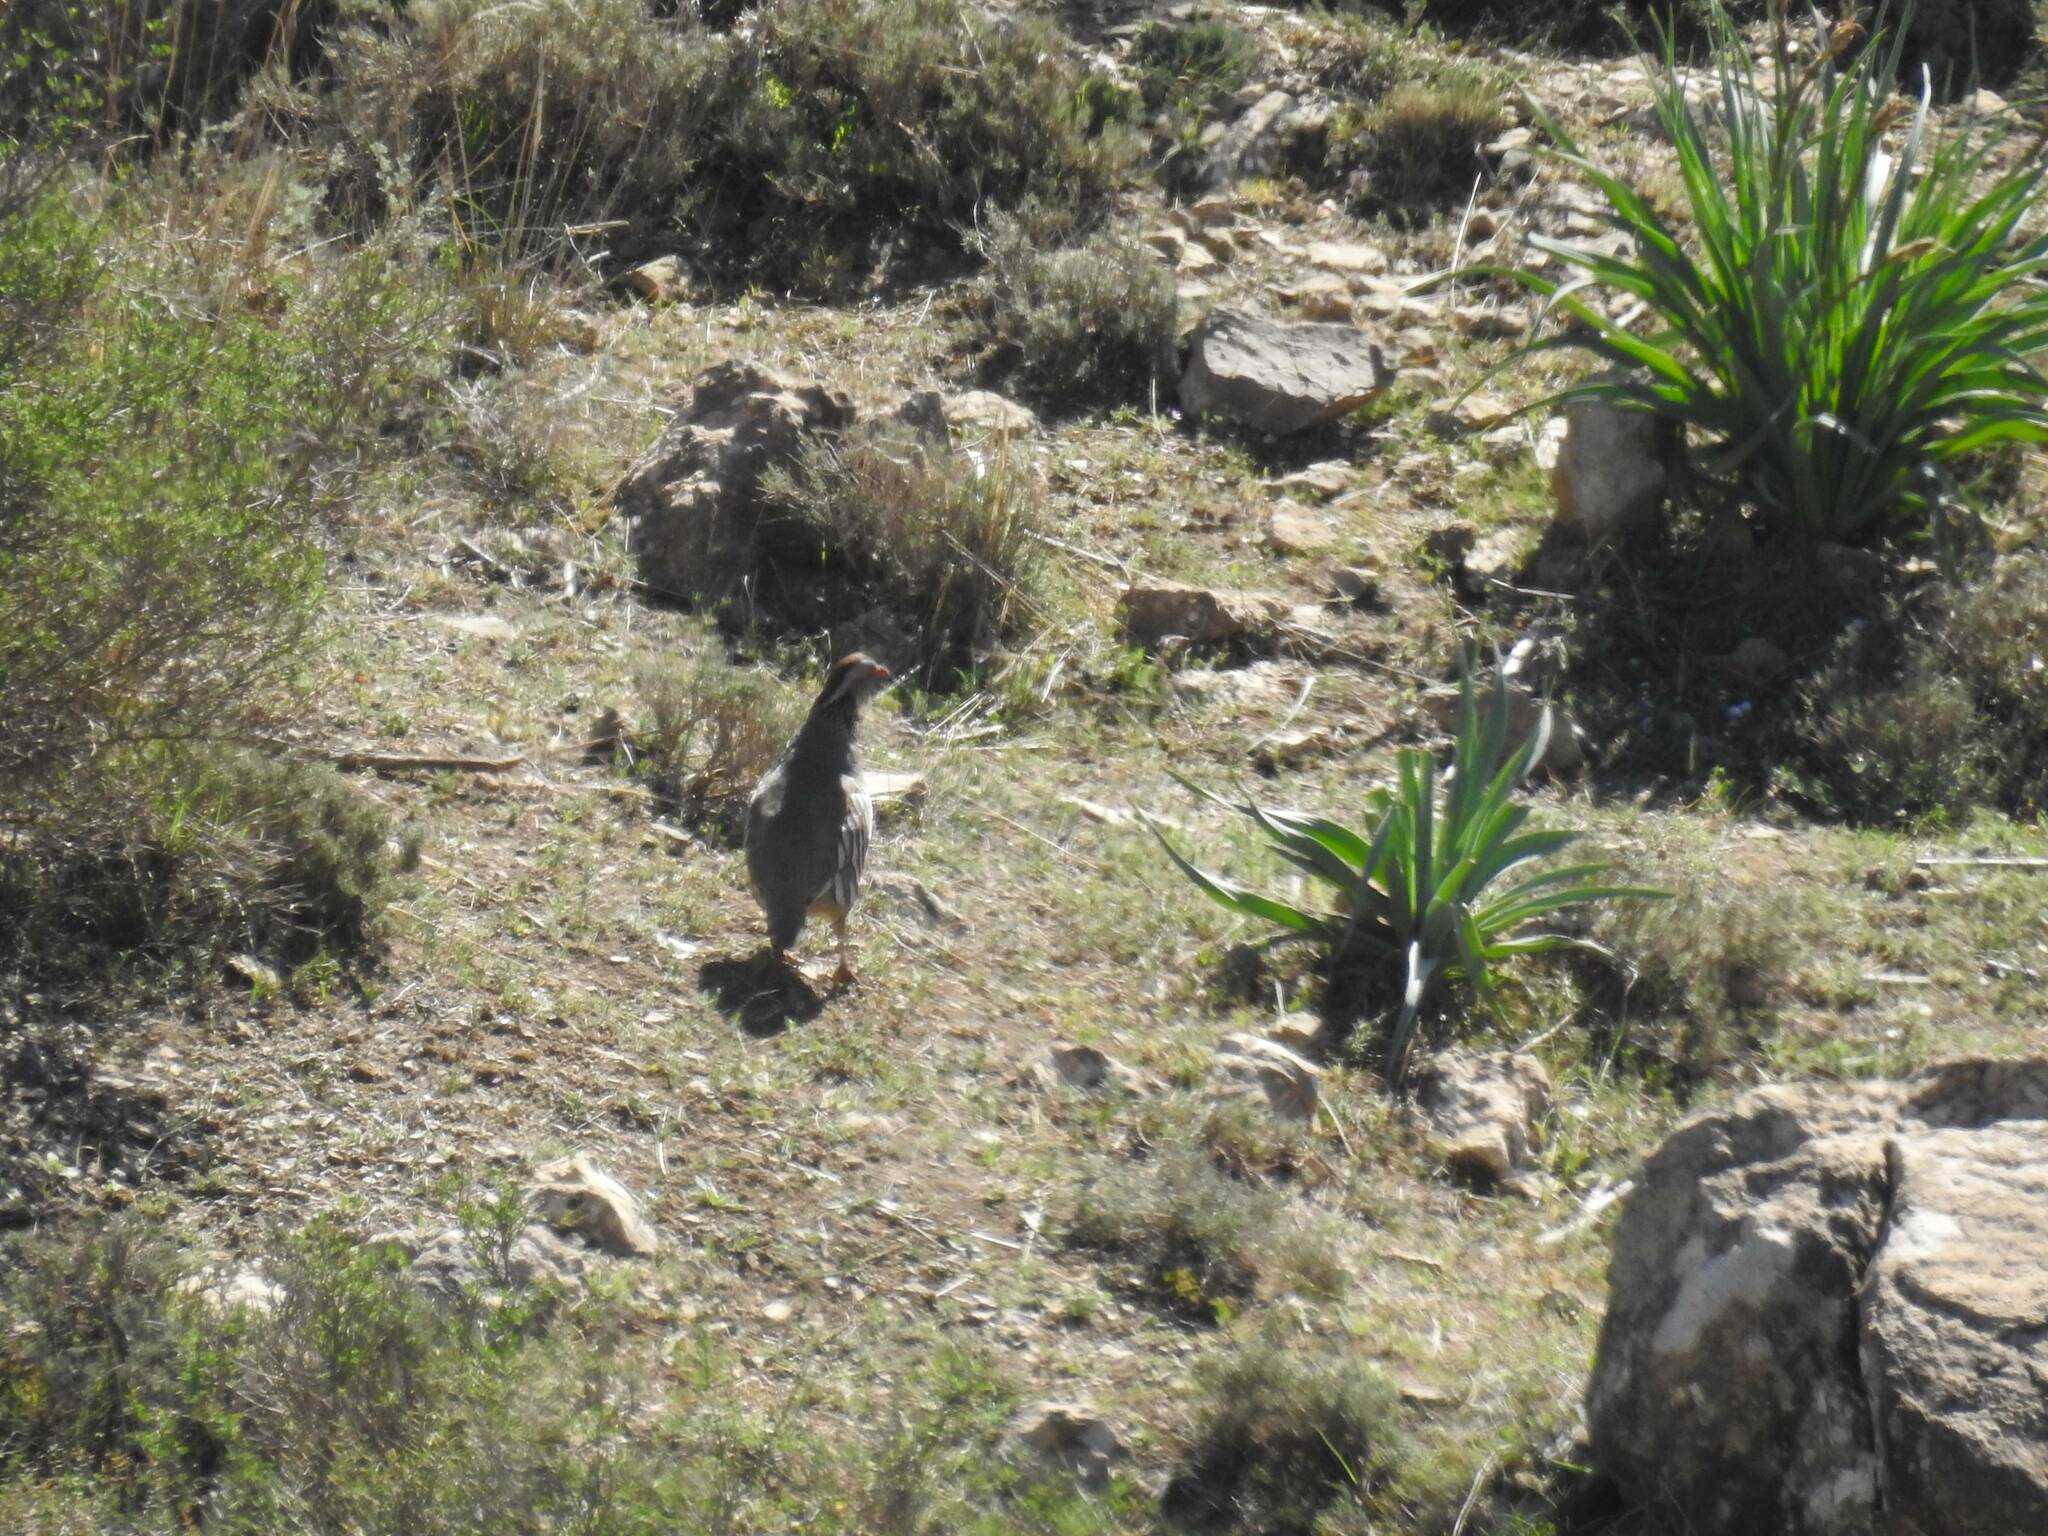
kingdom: Animalia
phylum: Chordata
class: Aves
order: Galliformes
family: Phasianidae
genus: Alectoris
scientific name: Alectoris barbara
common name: Barbary partridge
